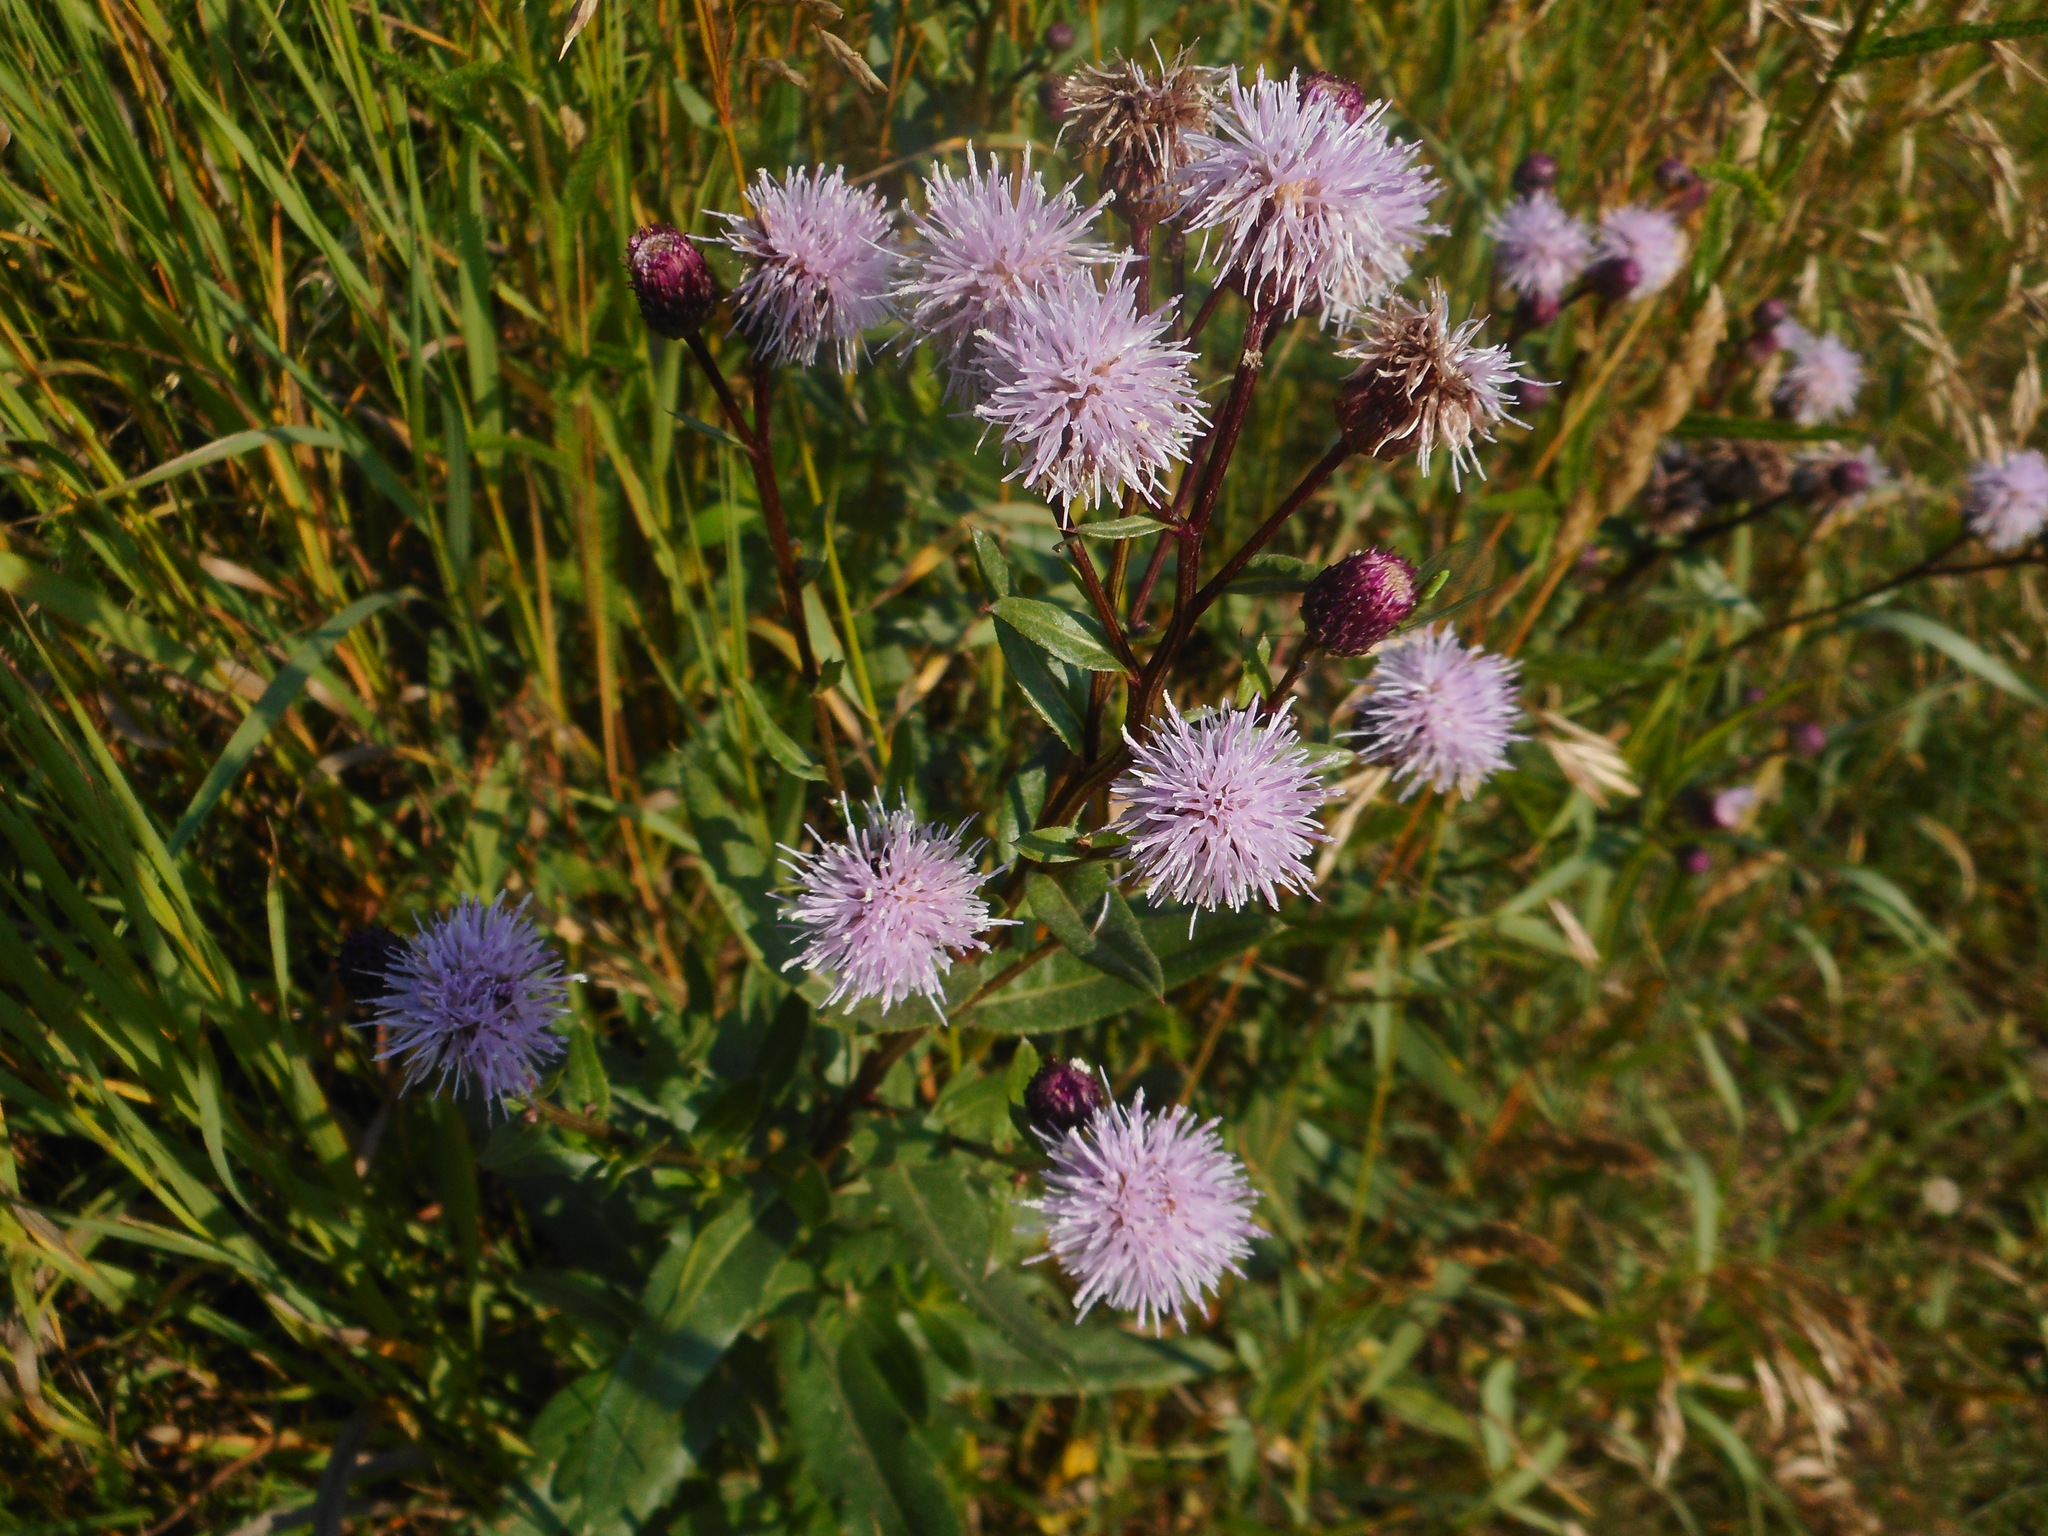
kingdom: Plantae
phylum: Tracheophyta
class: Magnoliopsida
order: Asterales
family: Asteraceae
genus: Cirsium
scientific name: Cirsium arvense
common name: Creeping thistle
